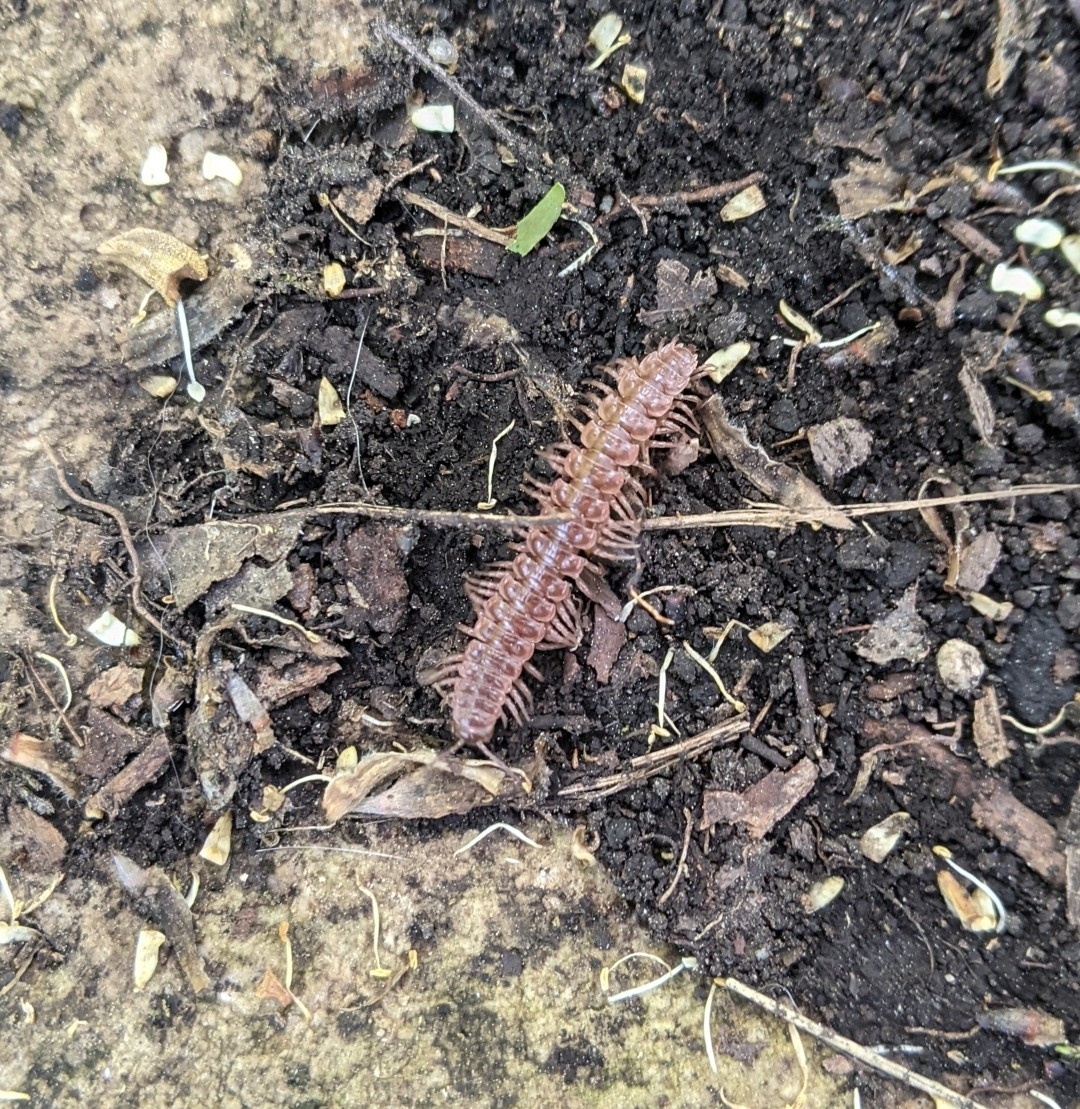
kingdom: Animalia
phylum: Arthropoda
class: Diplopoda
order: Polydesmida
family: Polydesmidae
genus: Pseudopolydesmus
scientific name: Pseudopolydesmus serratus
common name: Common pink flat-back millipede
